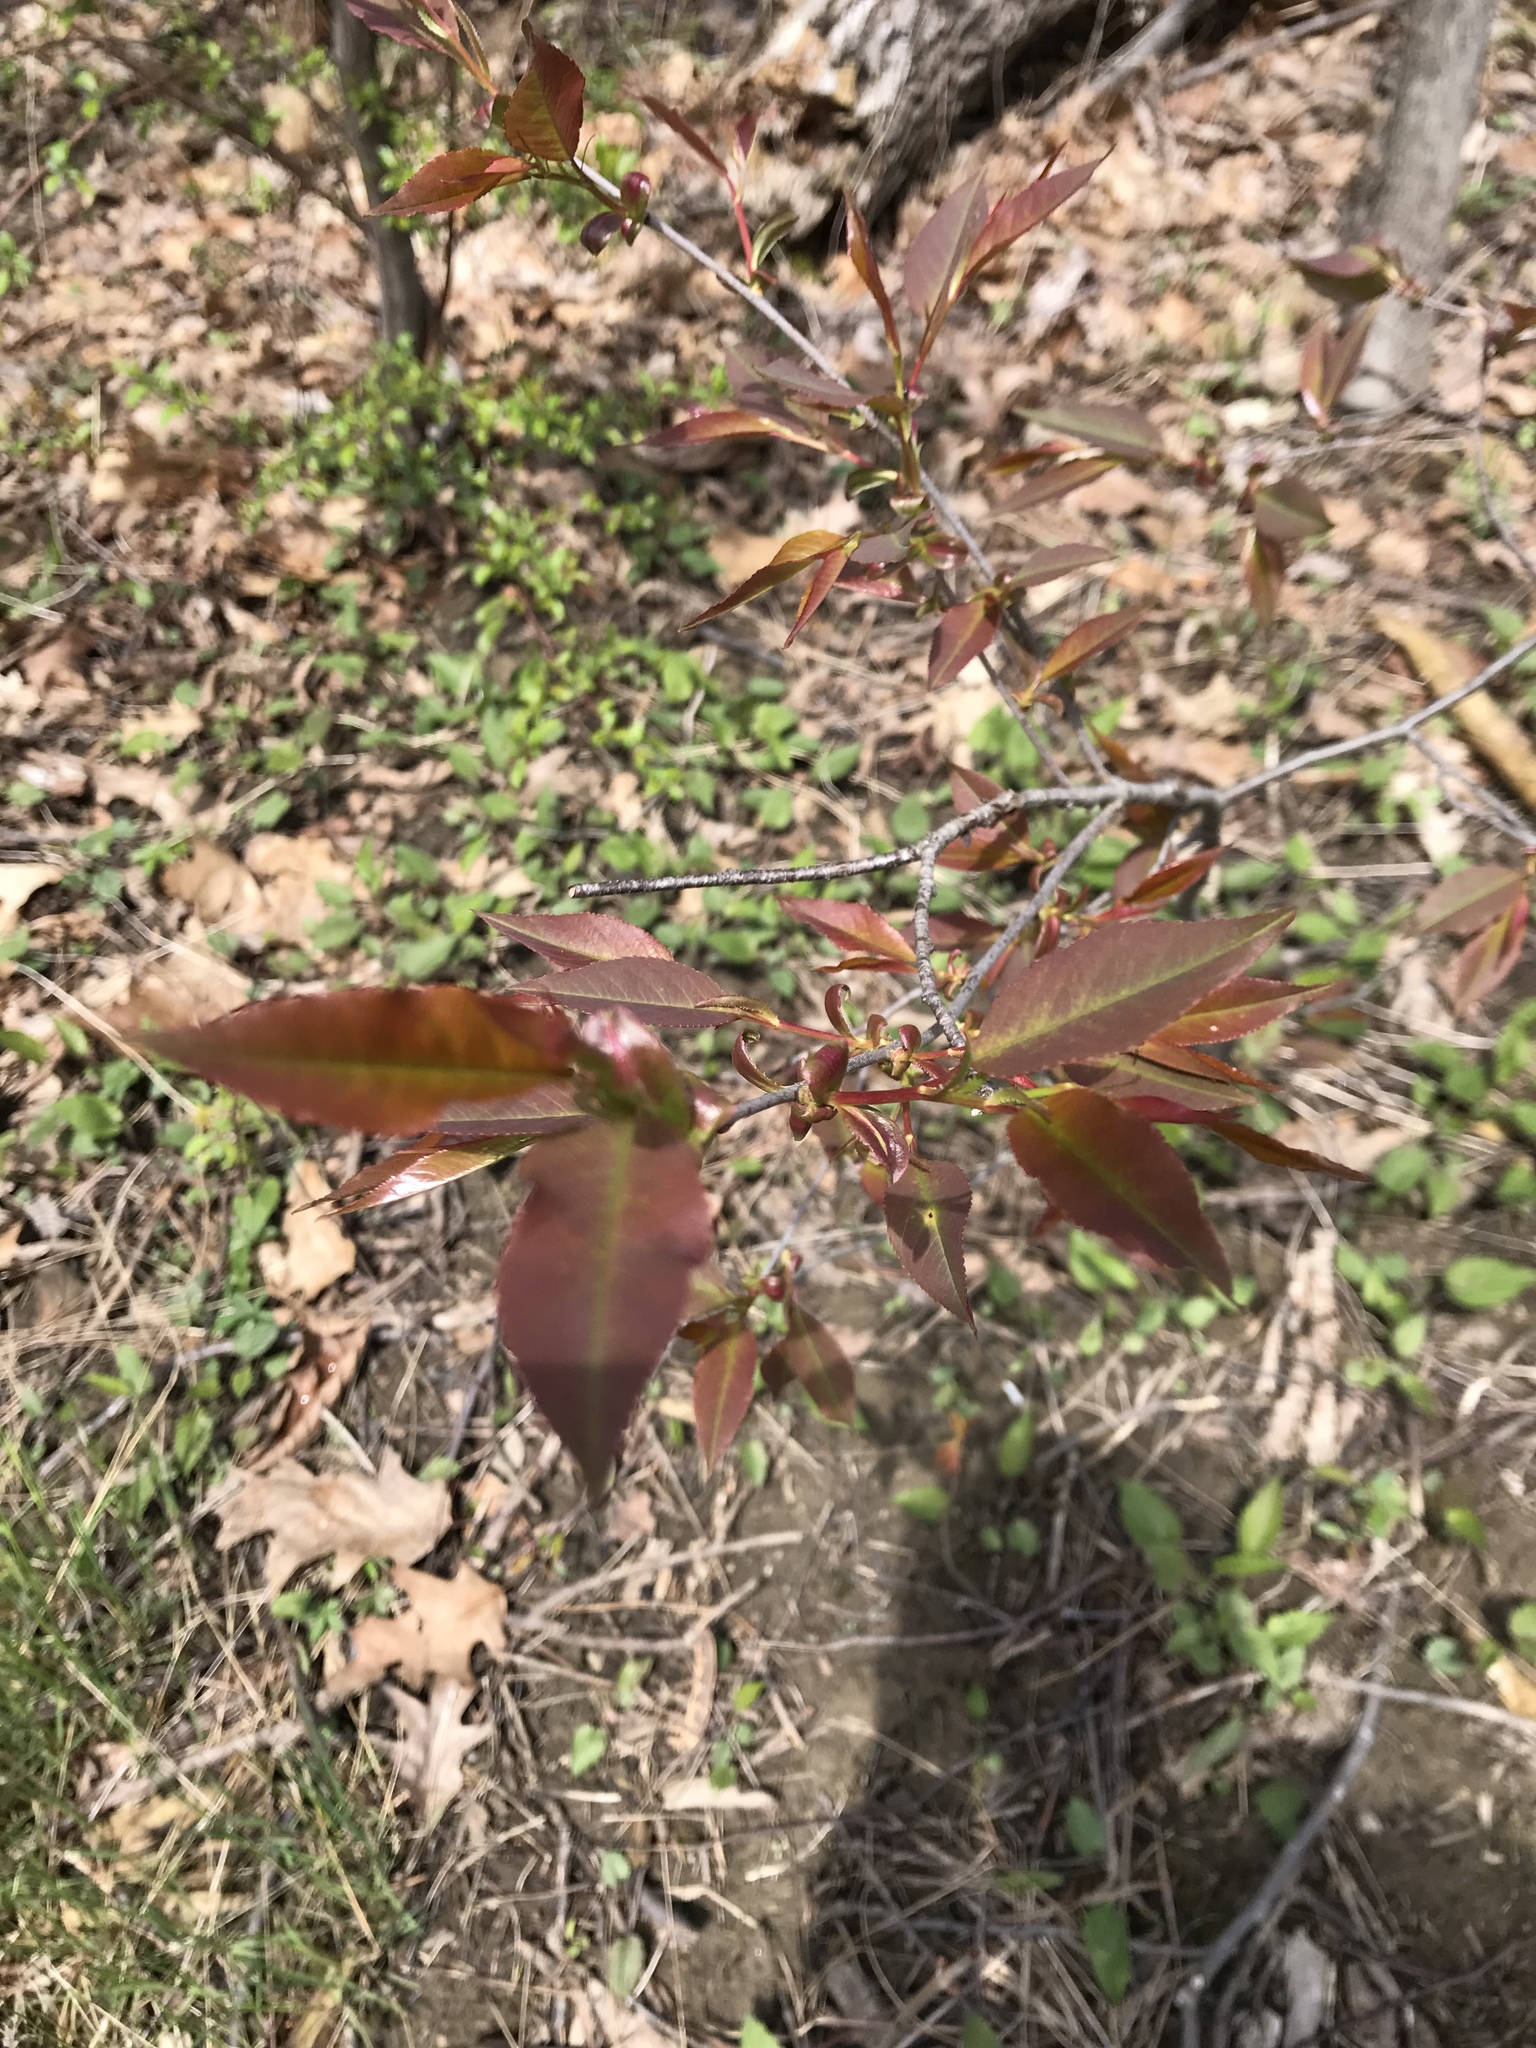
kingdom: Plantae
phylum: Tracheophyta
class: Magnoliopsida
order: Rosales
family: Rosaceae
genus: Prunus
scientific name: Prunus serotina
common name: Black cherry
